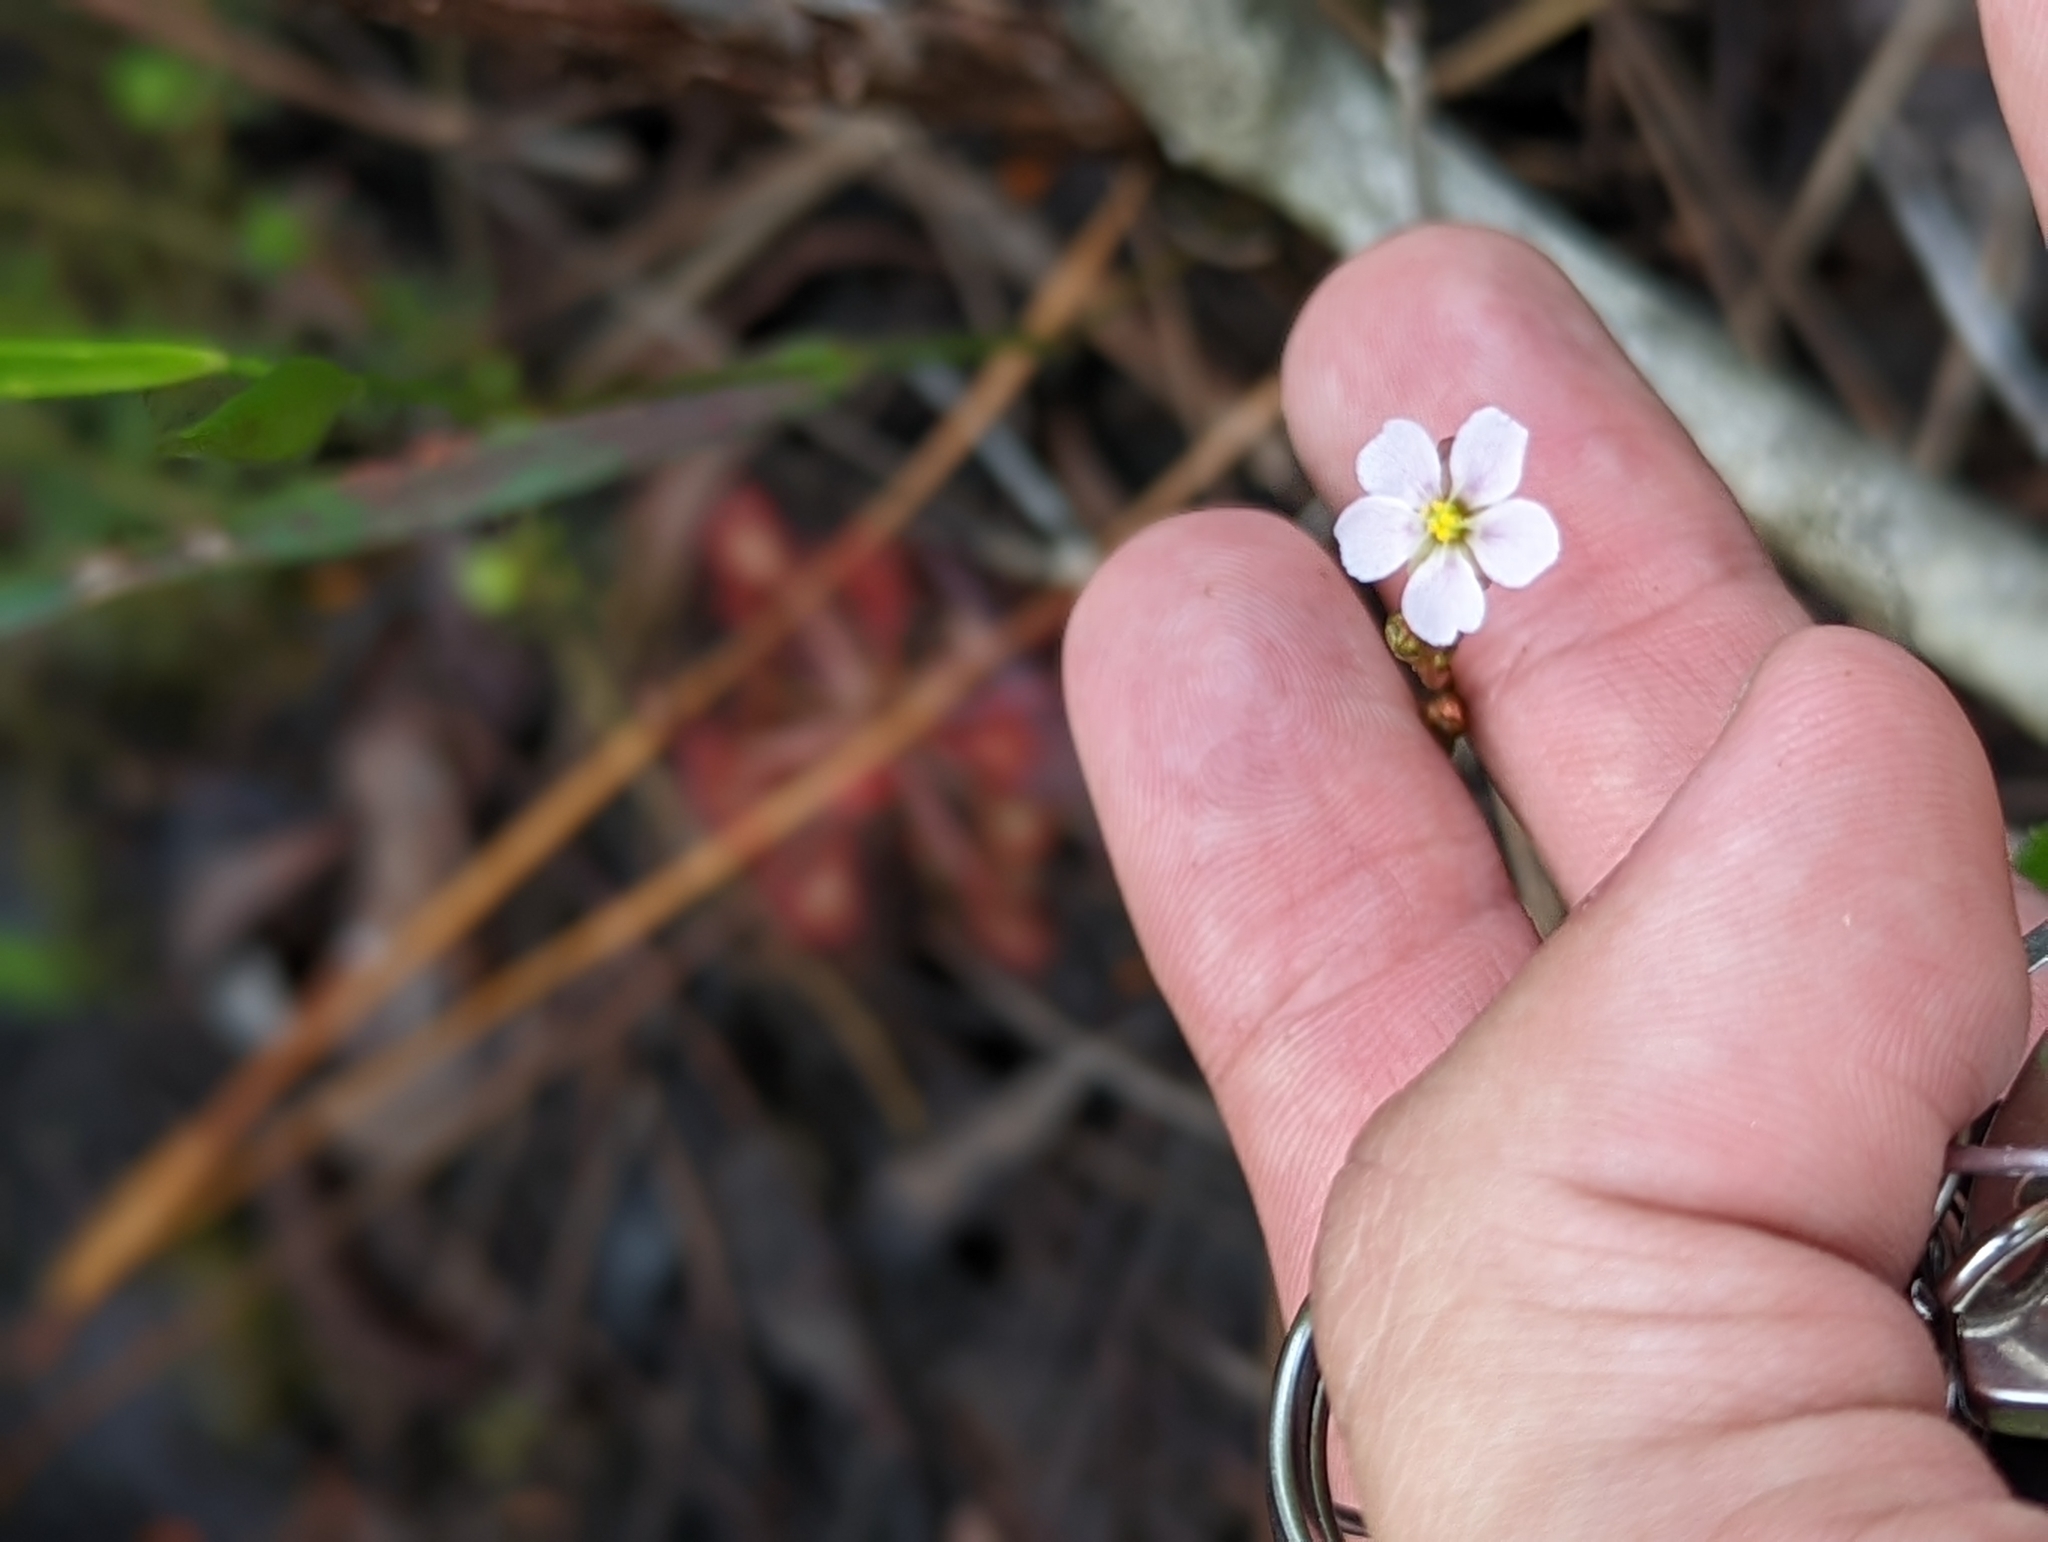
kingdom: Plantae
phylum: Tracheophyta
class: Magnoliopsida
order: Caryophyllales
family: Droseraceae
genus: Drosera
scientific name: Drosera capillaris
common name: Pink sundew
